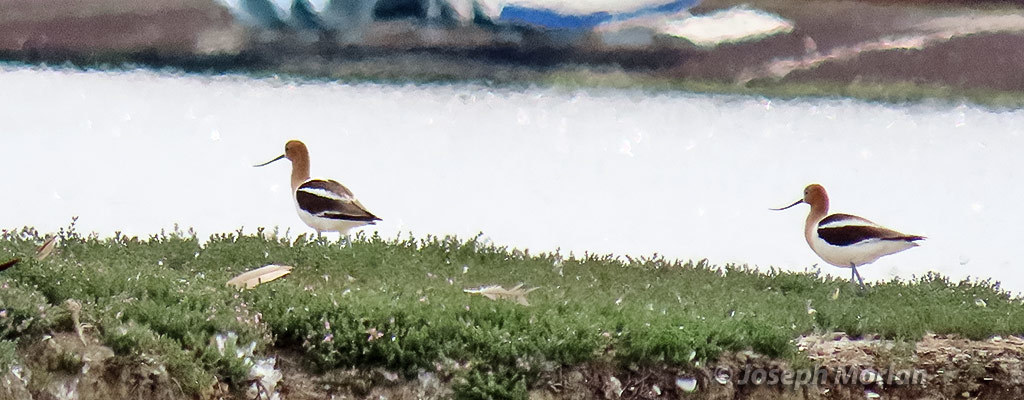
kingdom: Animalia
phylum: Chordata
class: Aves
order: Charadriiformes
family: Recurvirostridae
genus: Recurvirostra
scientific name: Recurvirostra americana
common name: American avocet
